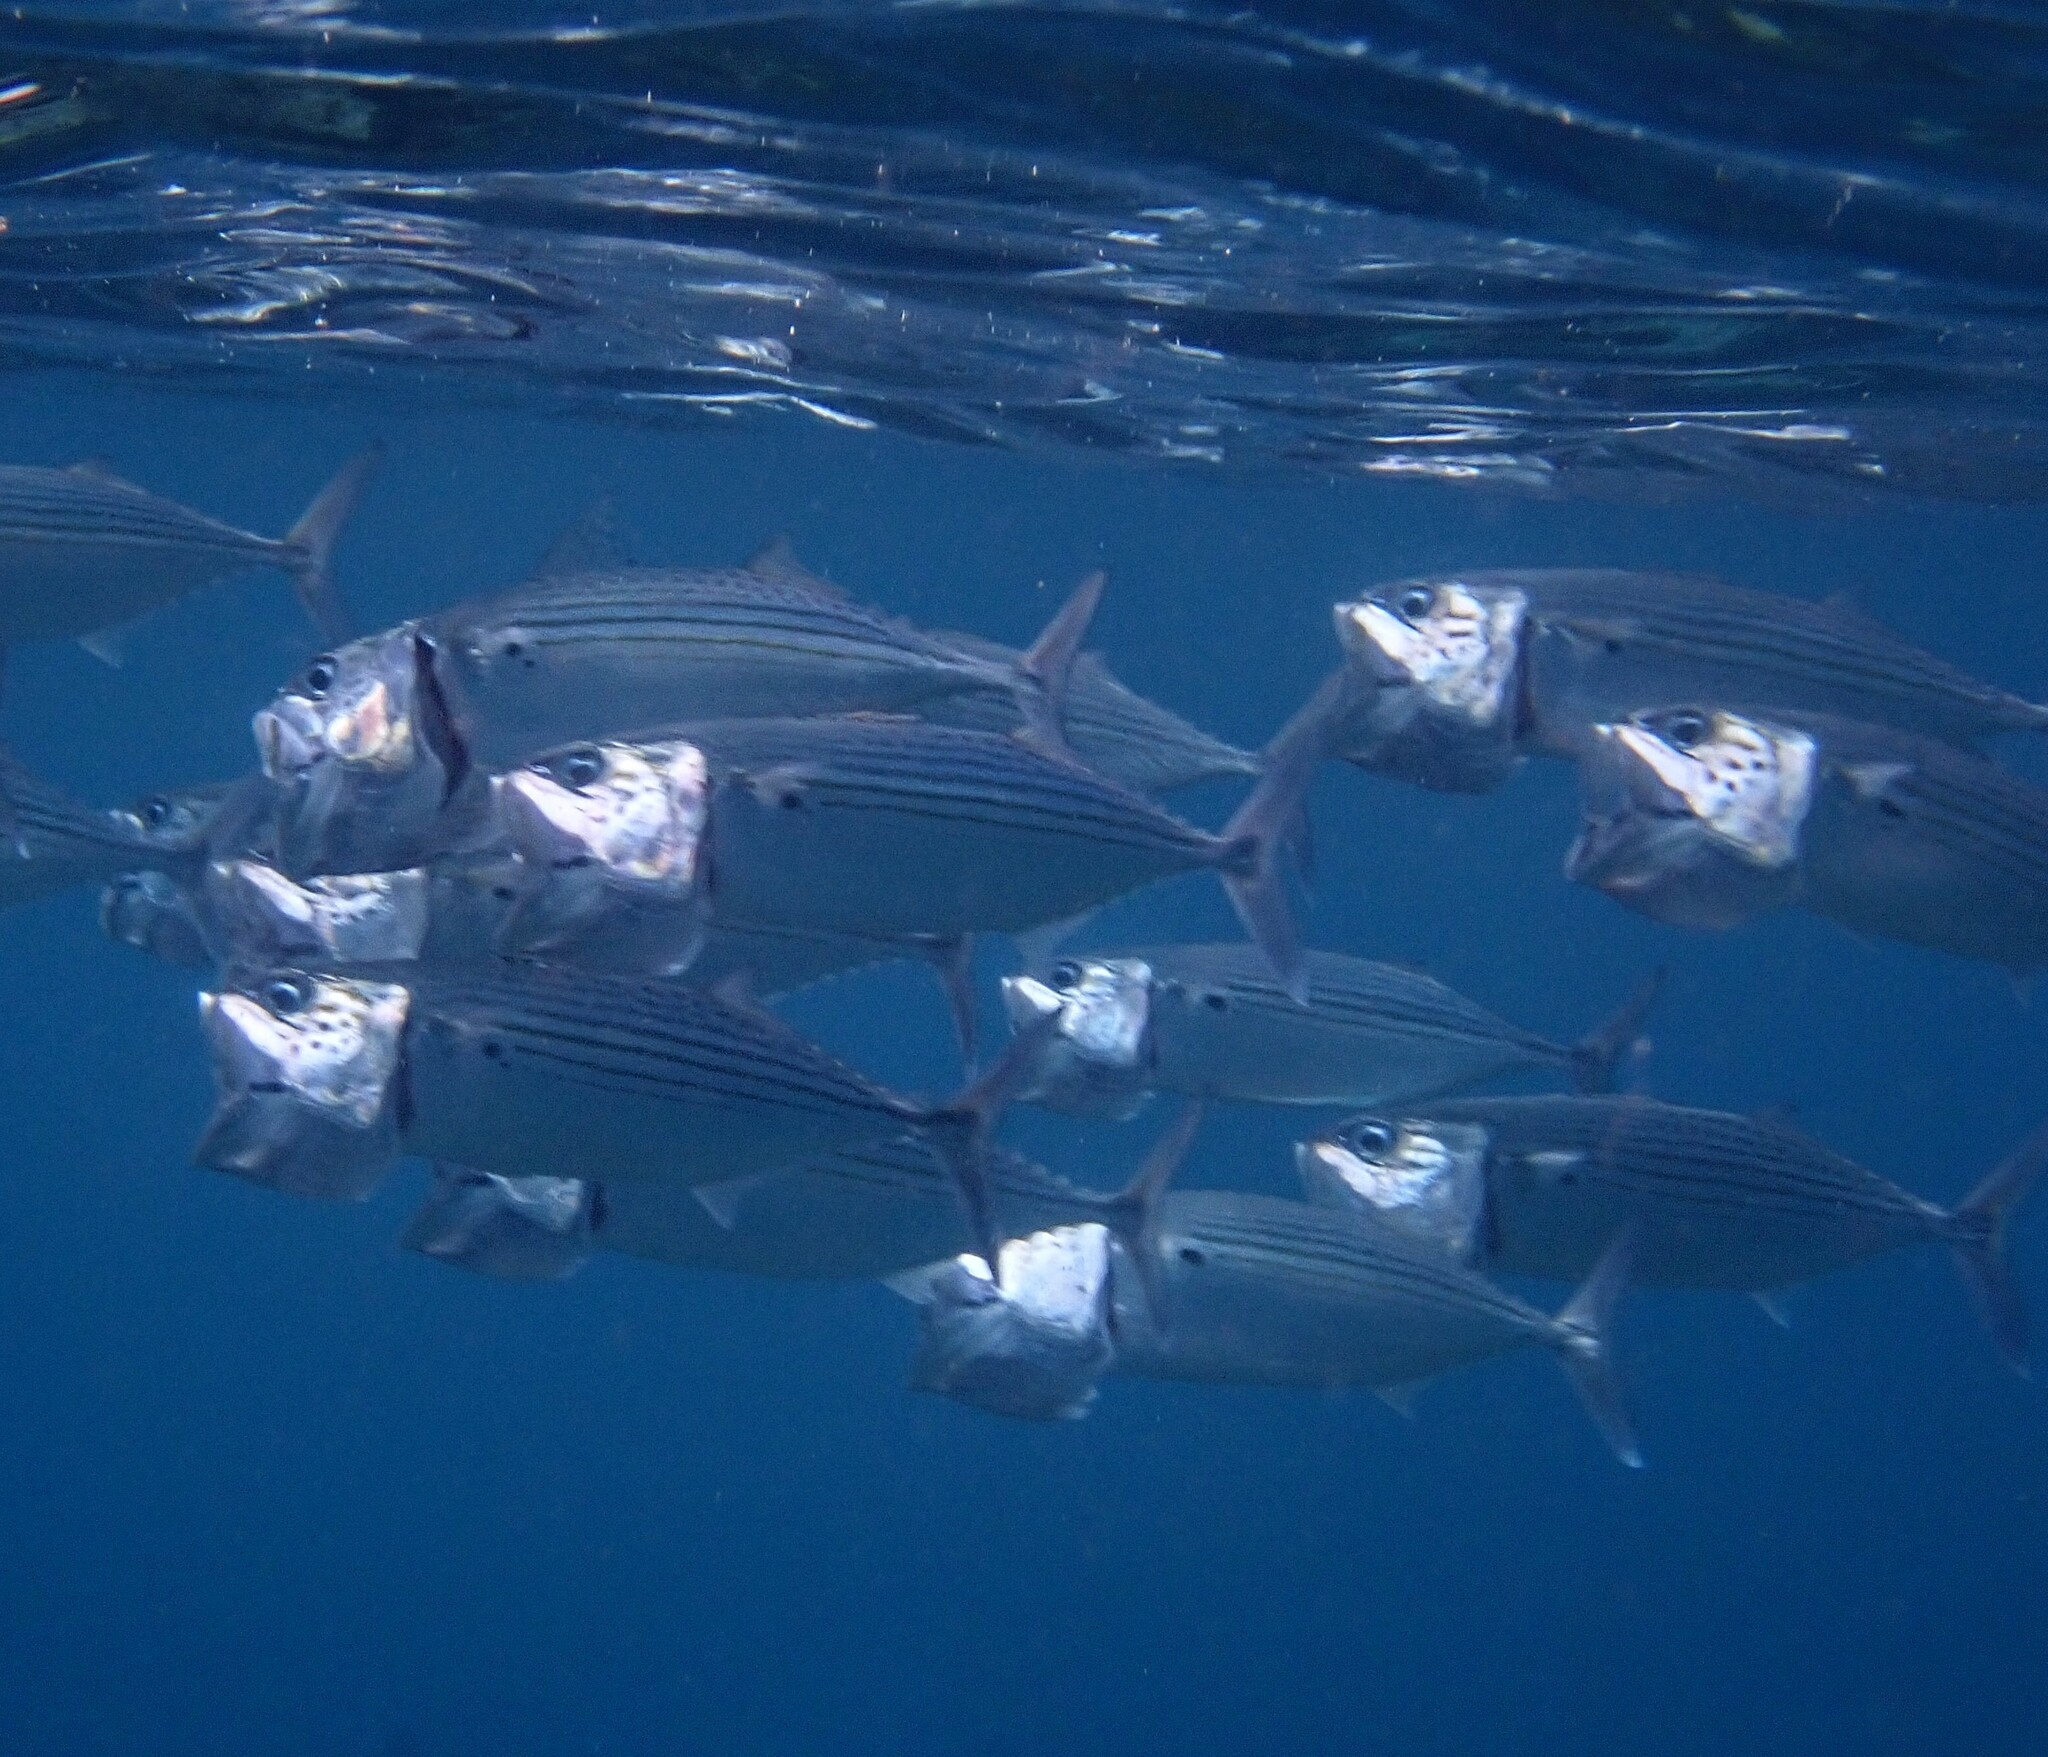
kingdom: Animalia
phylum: Chordata
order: Perciformes
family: Scombridae
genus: Rastrelliger
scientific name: Rastrelliger kanagurta
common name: Indian mackerel
